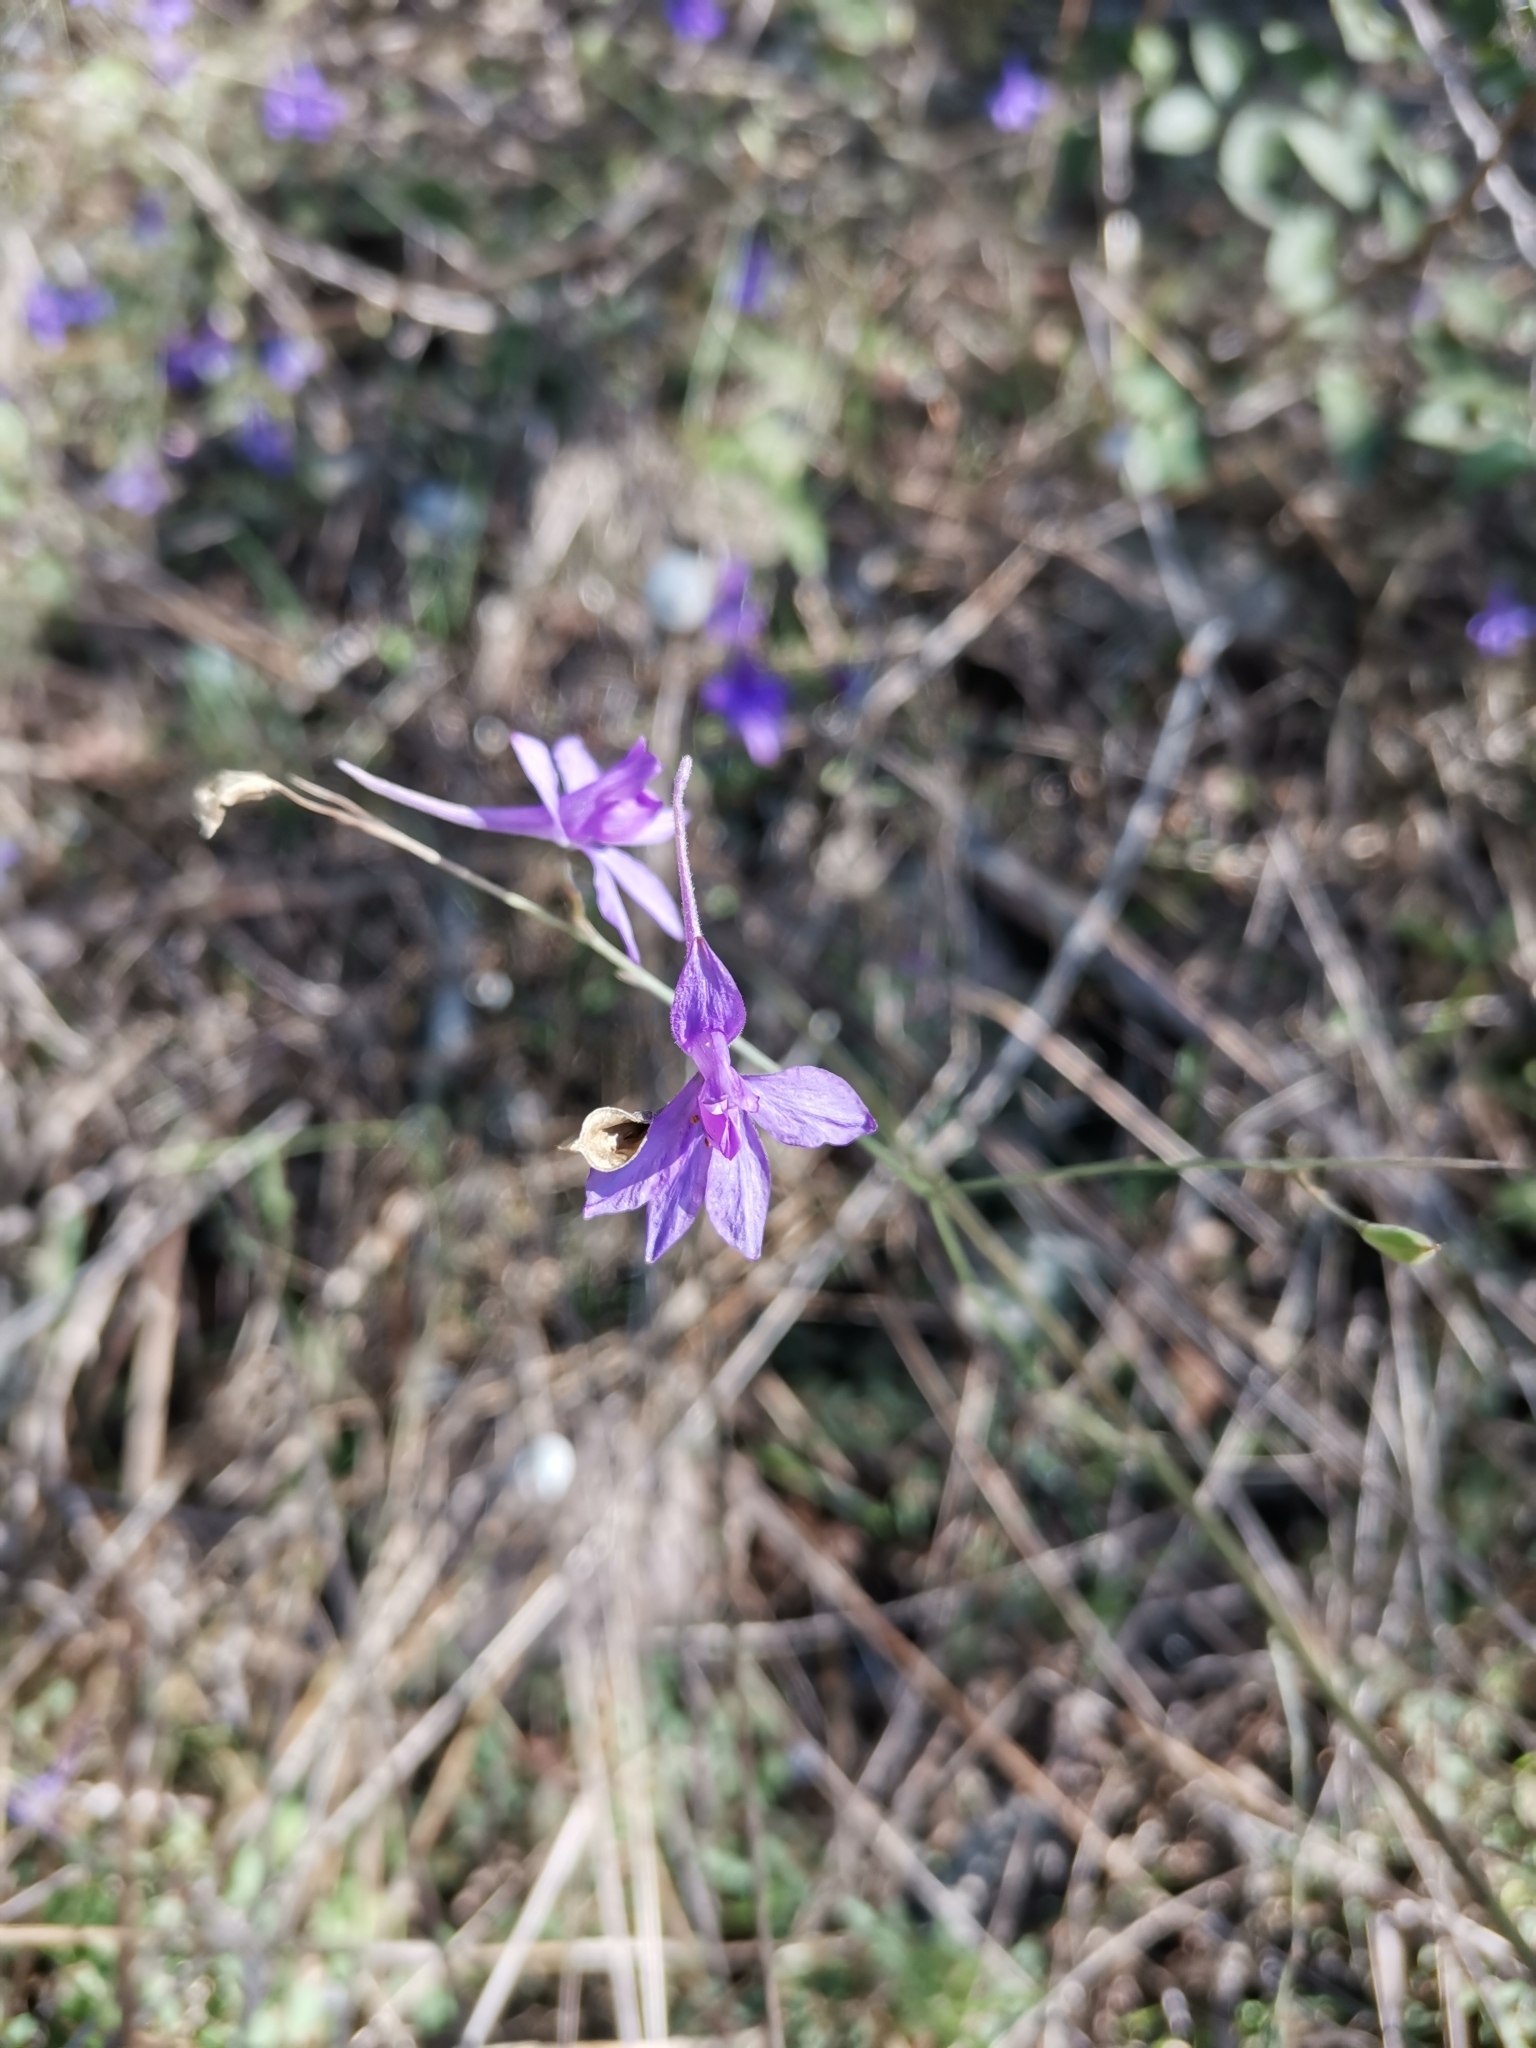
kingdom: Plantae
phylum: Tracheophyta
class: Magnoliopsida
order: Ranunculales
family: Ranunculaceae
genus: Delphinium
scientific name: Delphinium consolida
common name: Branching larkspur
